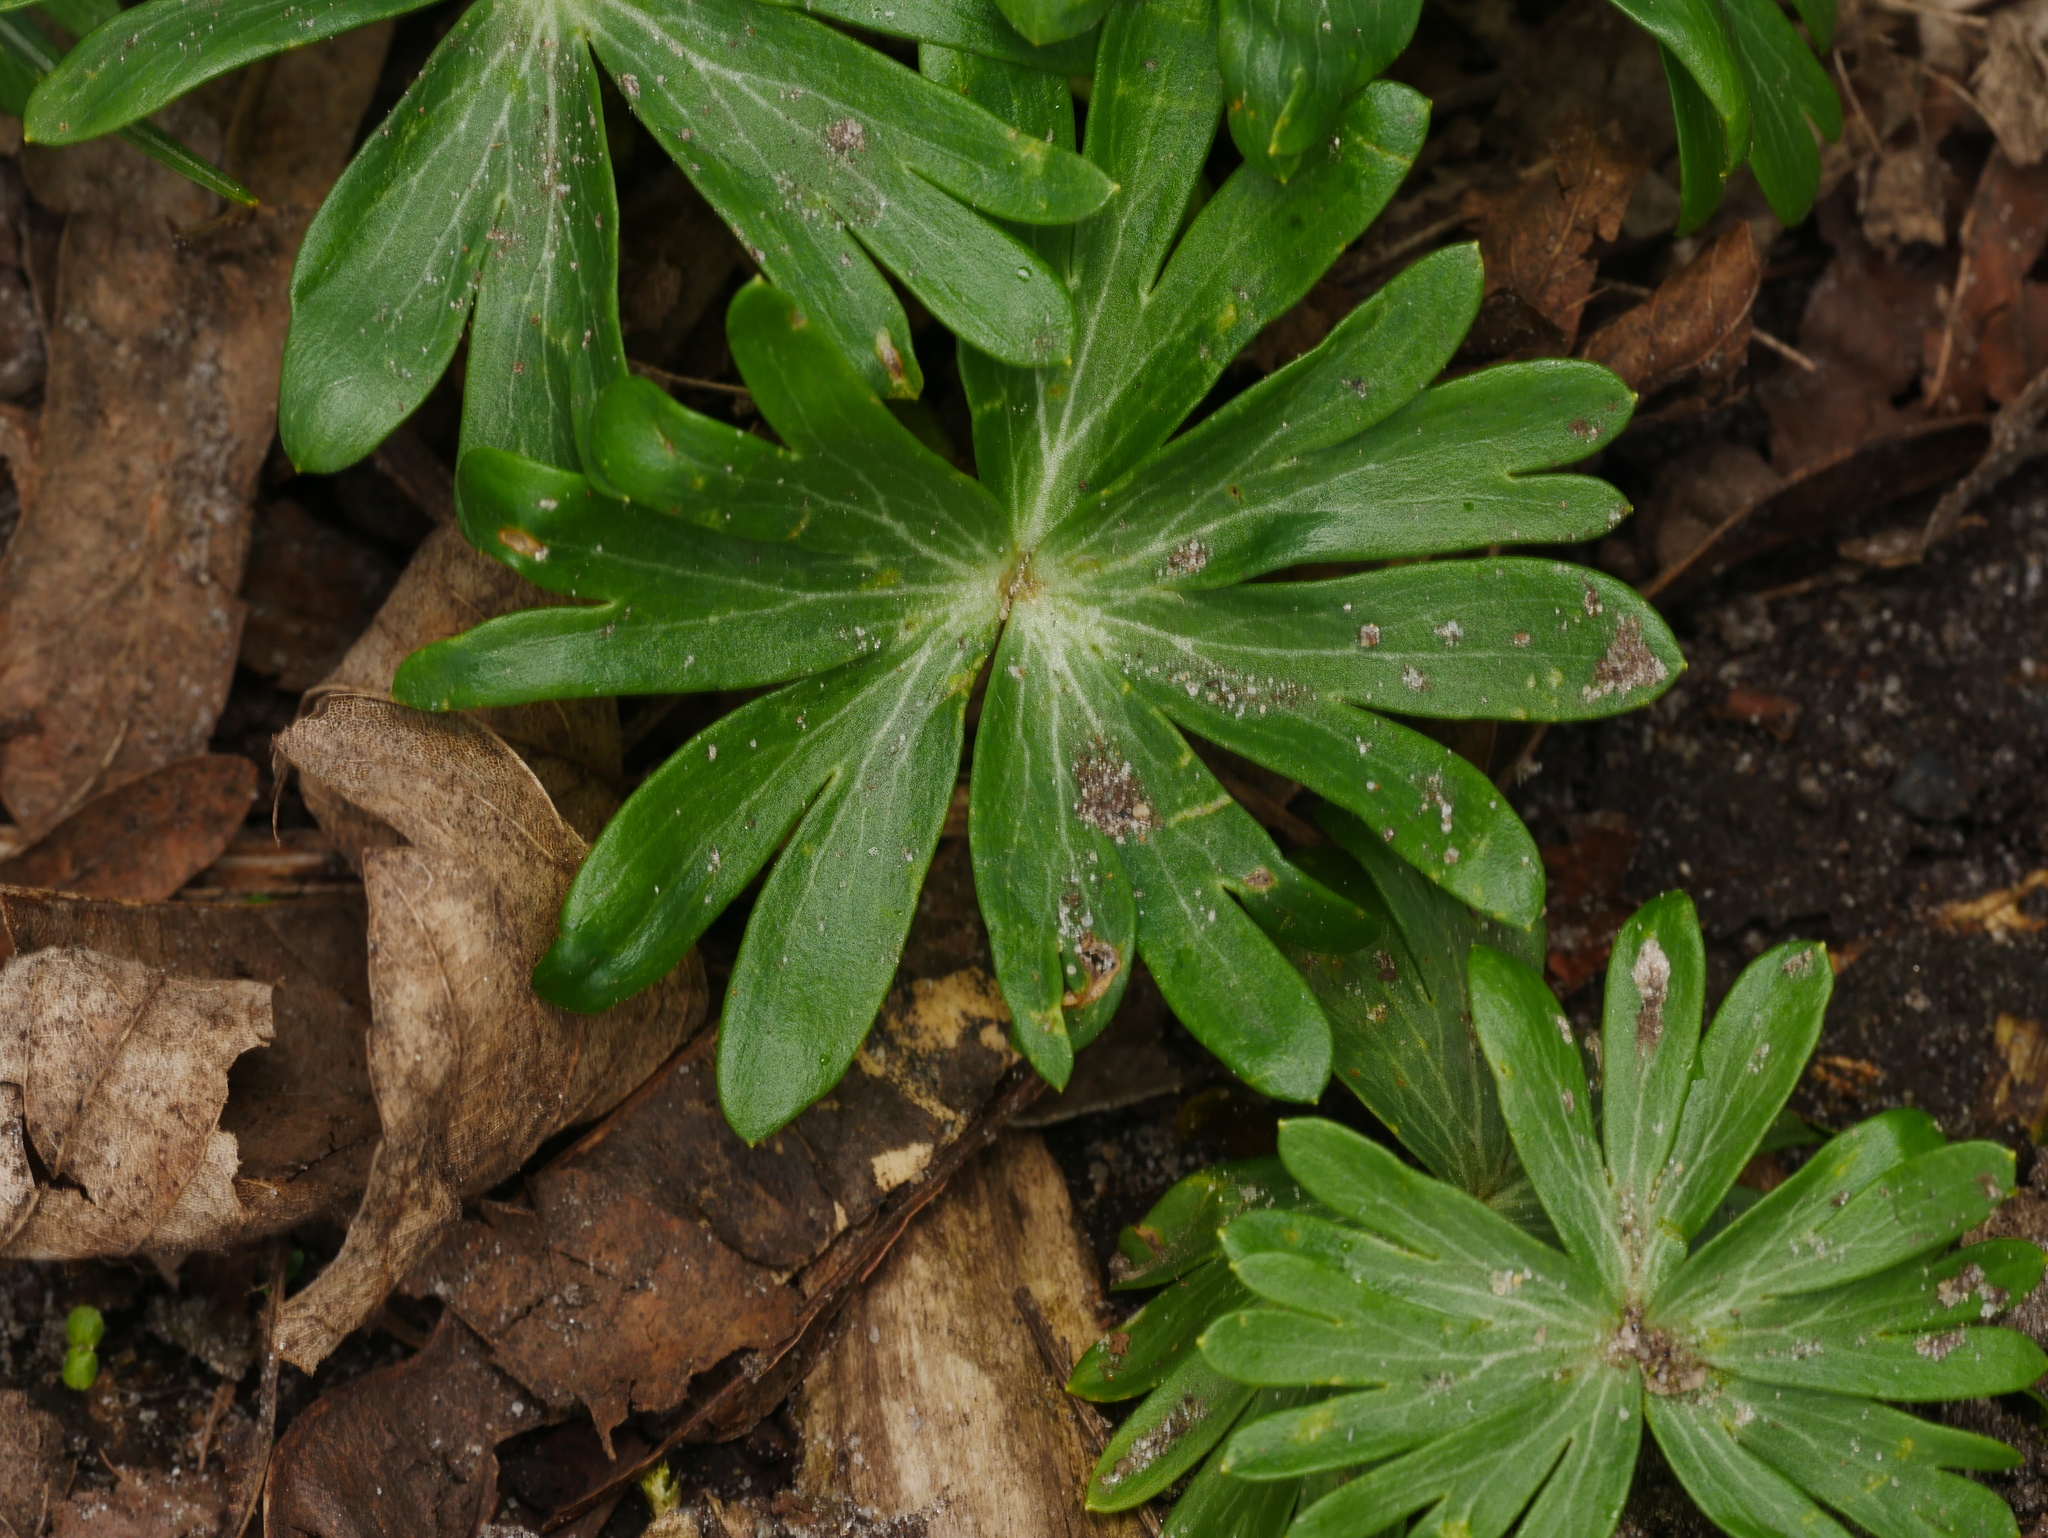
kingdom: Plantae
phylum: Tracheophyta
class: Magnoliopsida
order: Ranunculales
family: Ranunculaceae
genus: Eranthis
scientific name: Eranthis hyemalis
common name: Winter aconite
